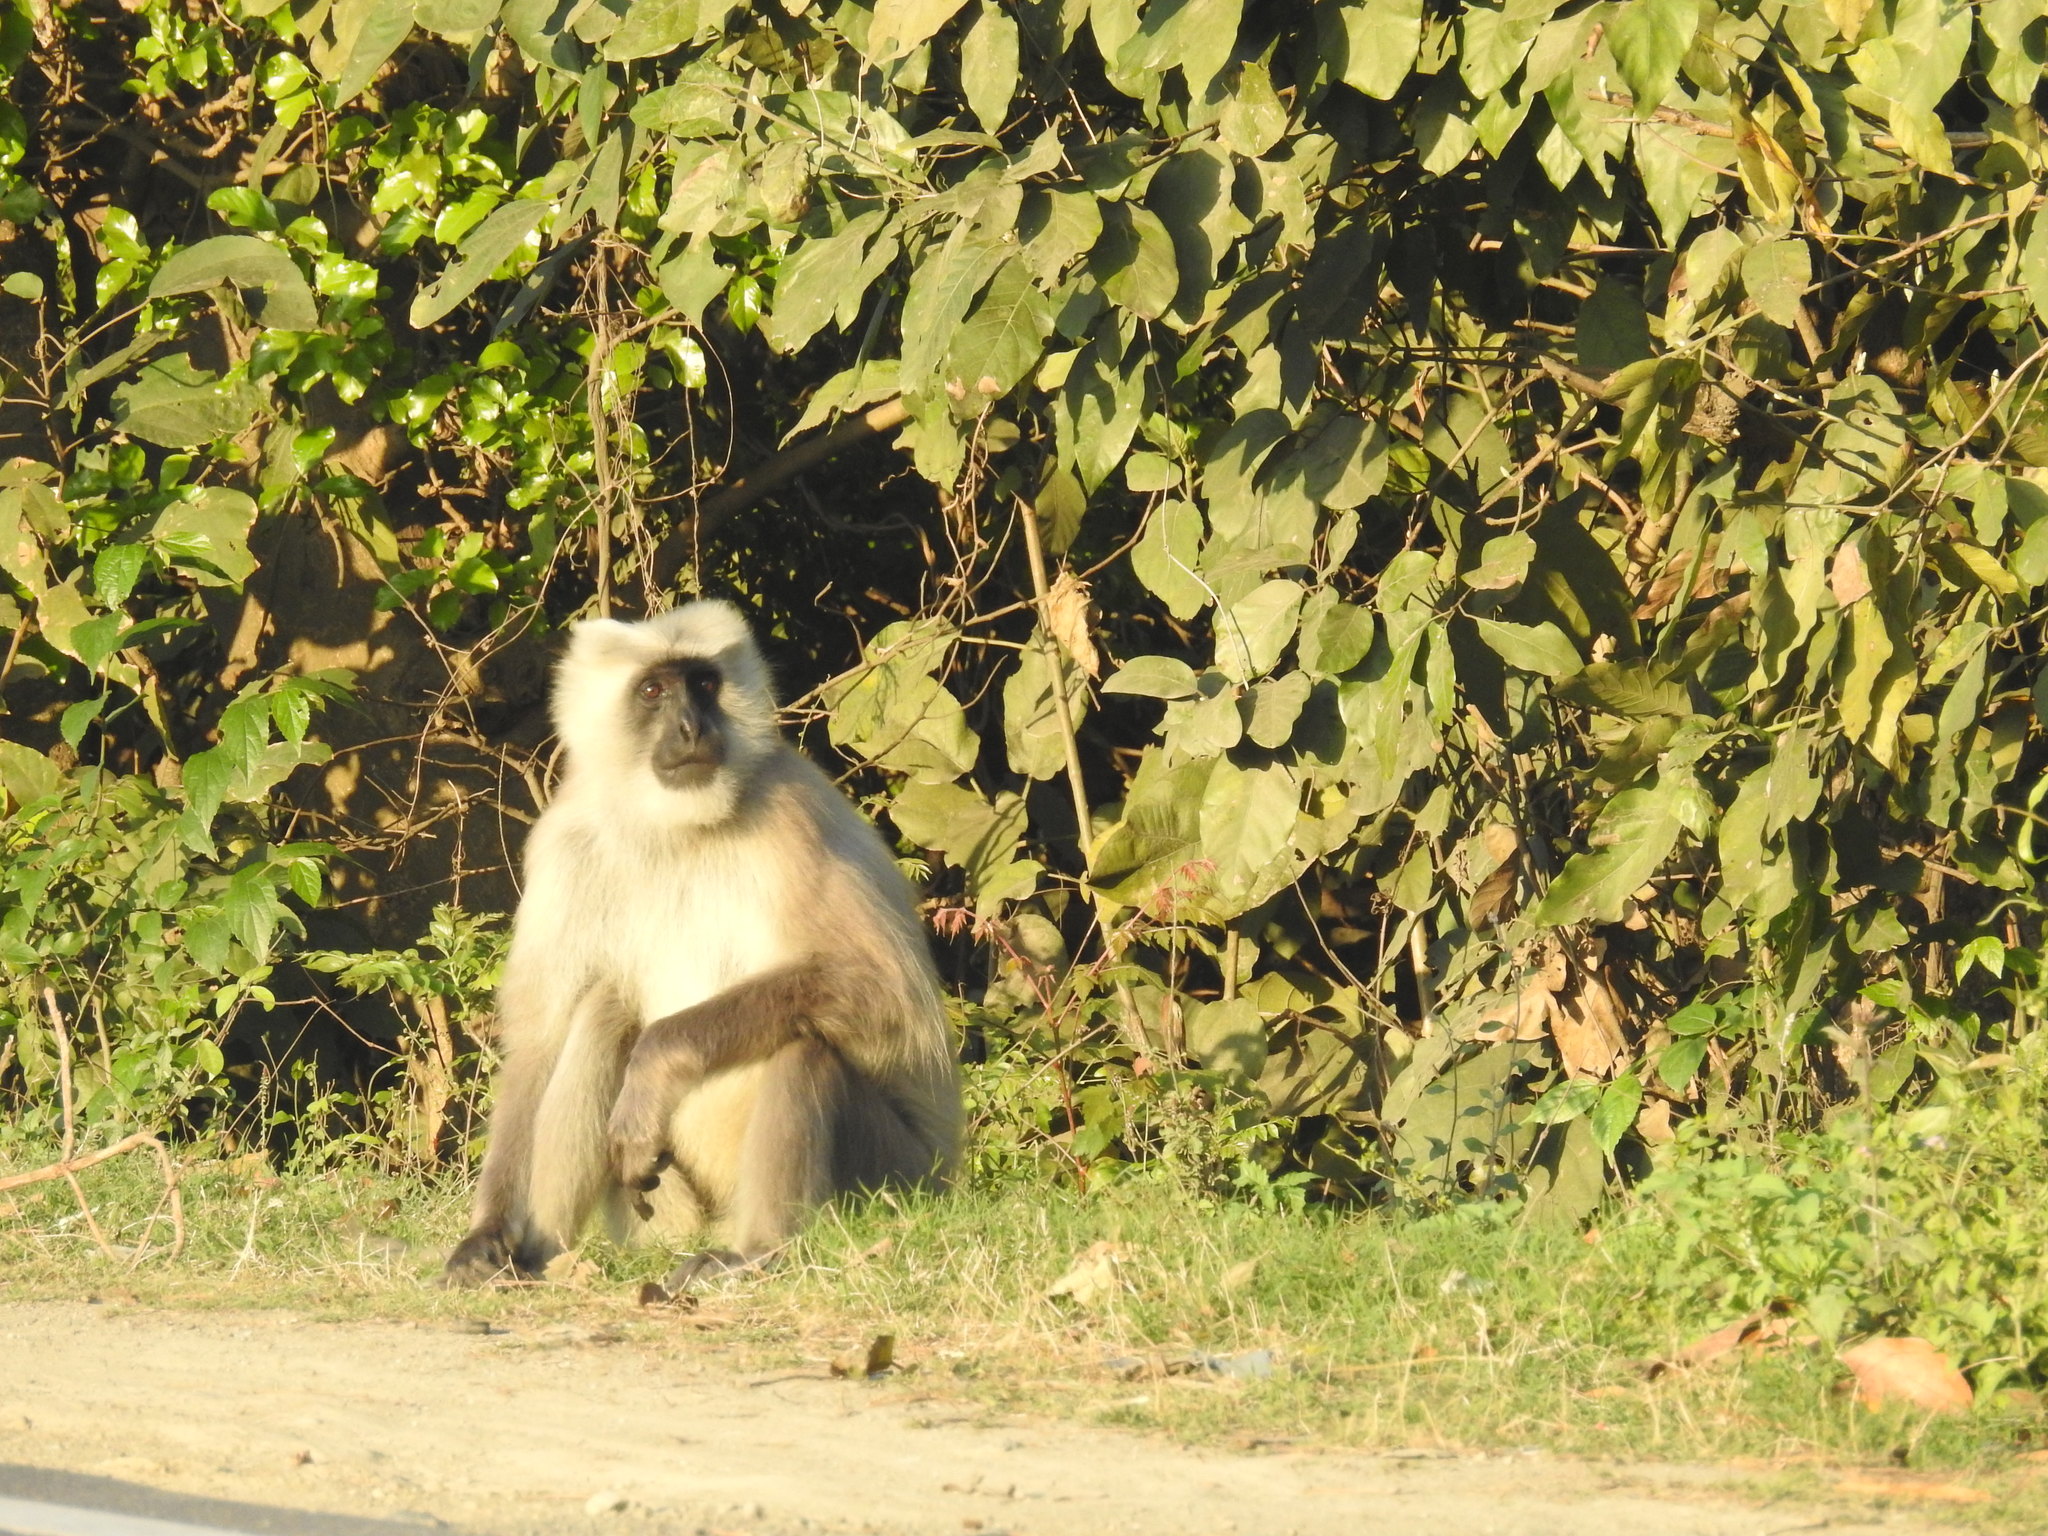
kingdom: Animalia
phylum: Chordata
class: Mammalia
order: Primates
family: Cercopithecidae
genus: Semnopithecus
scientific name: Semnopithecus schistaceus
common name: Nepal gray langur
